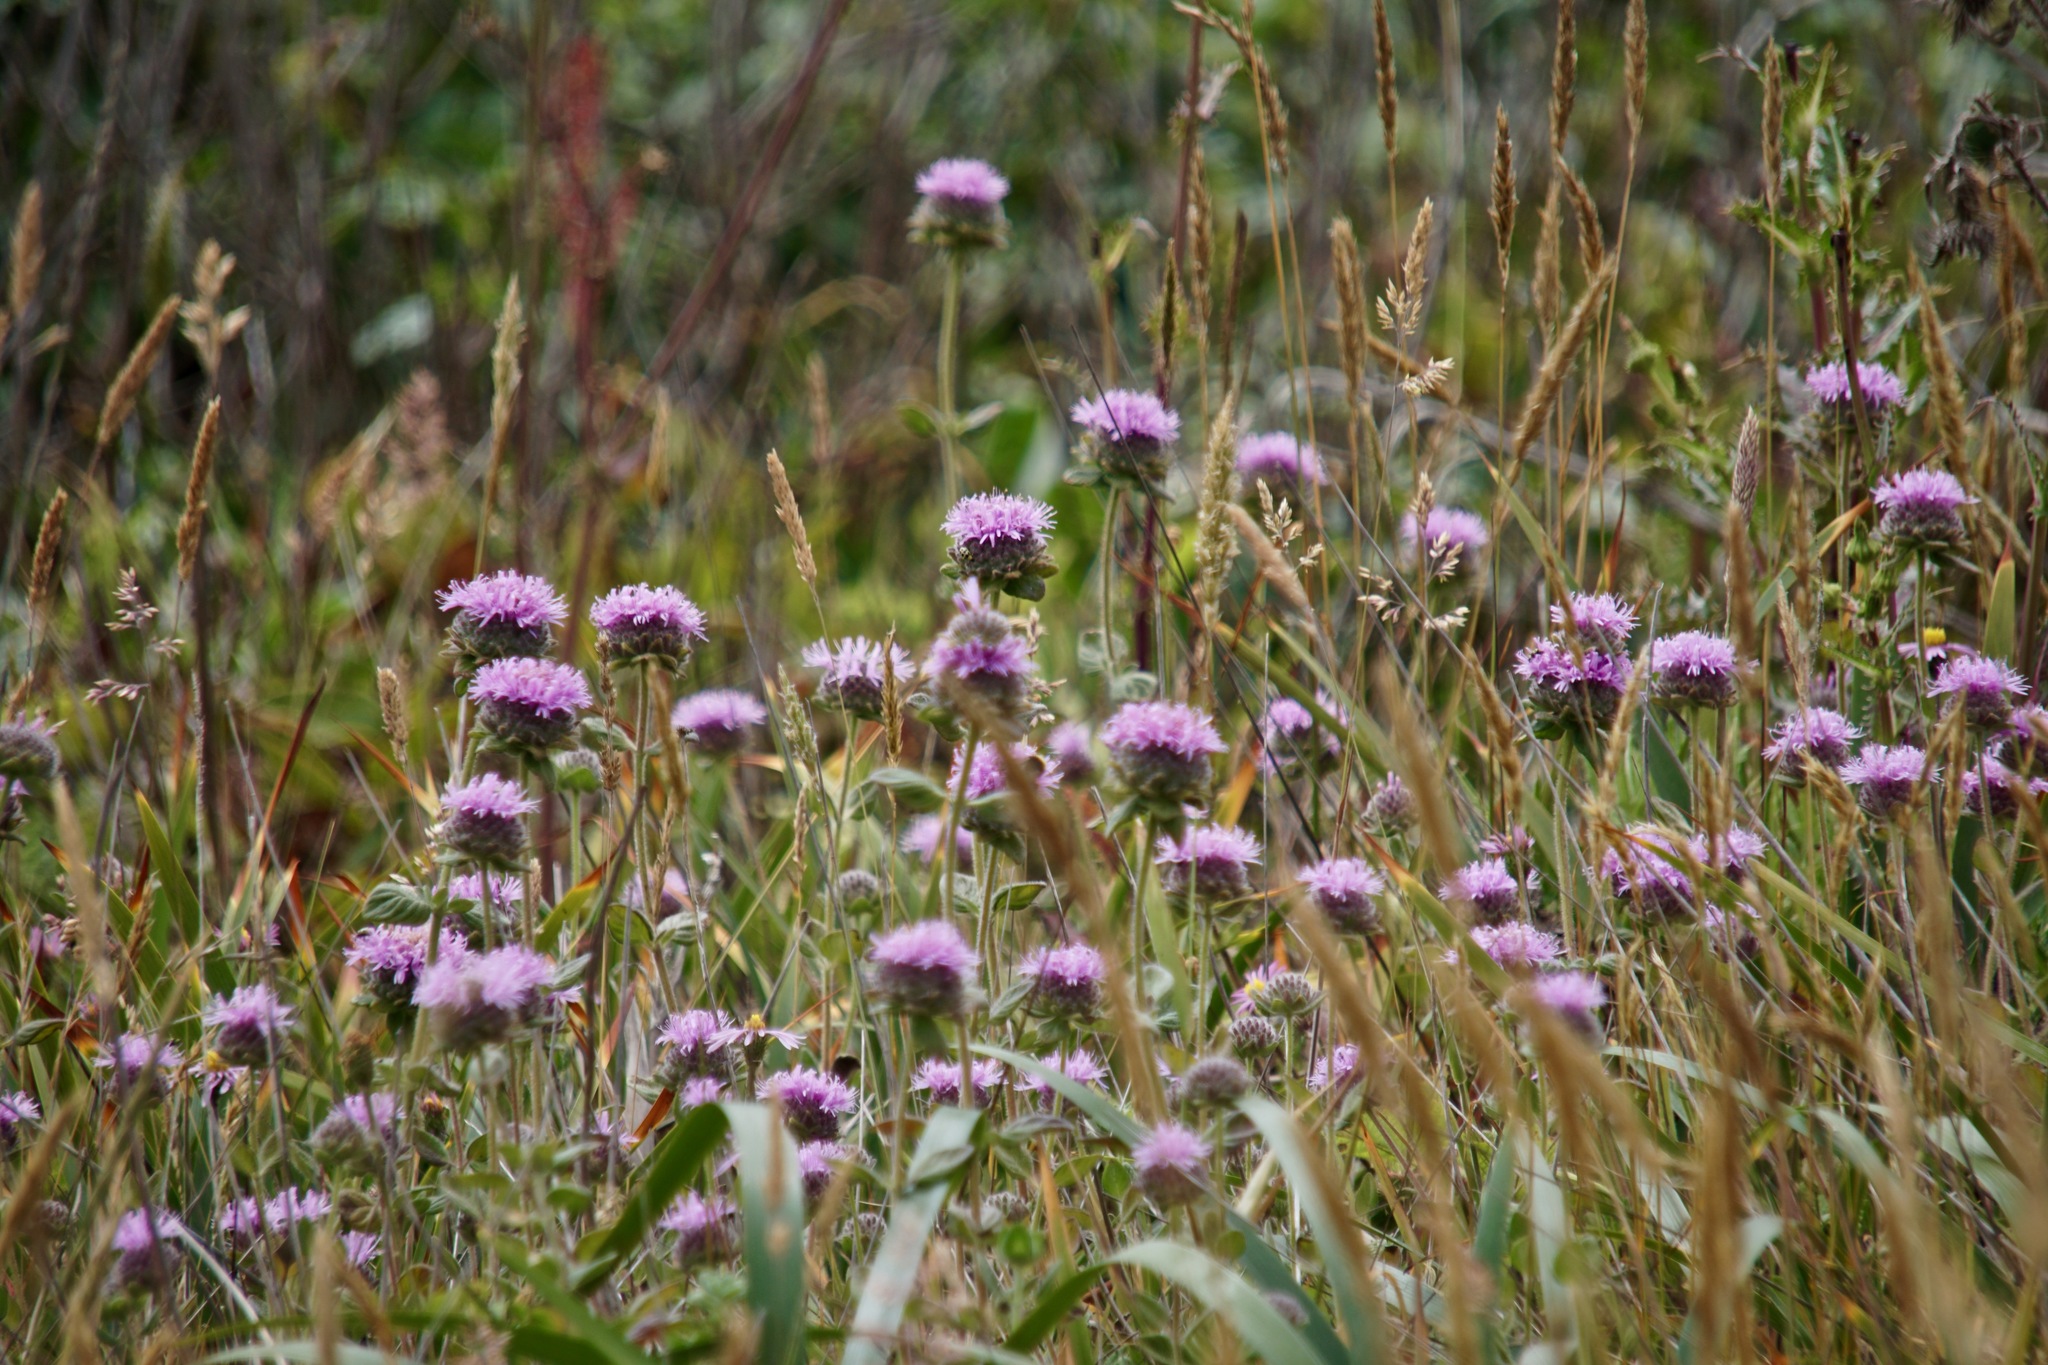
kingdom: Plantae
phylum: Tracheophyta
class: Magnoliopsida
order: Lamiales
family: Lamiaceae
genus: Monardella
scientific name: Monardella odoratissima
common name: Pacific monardella
